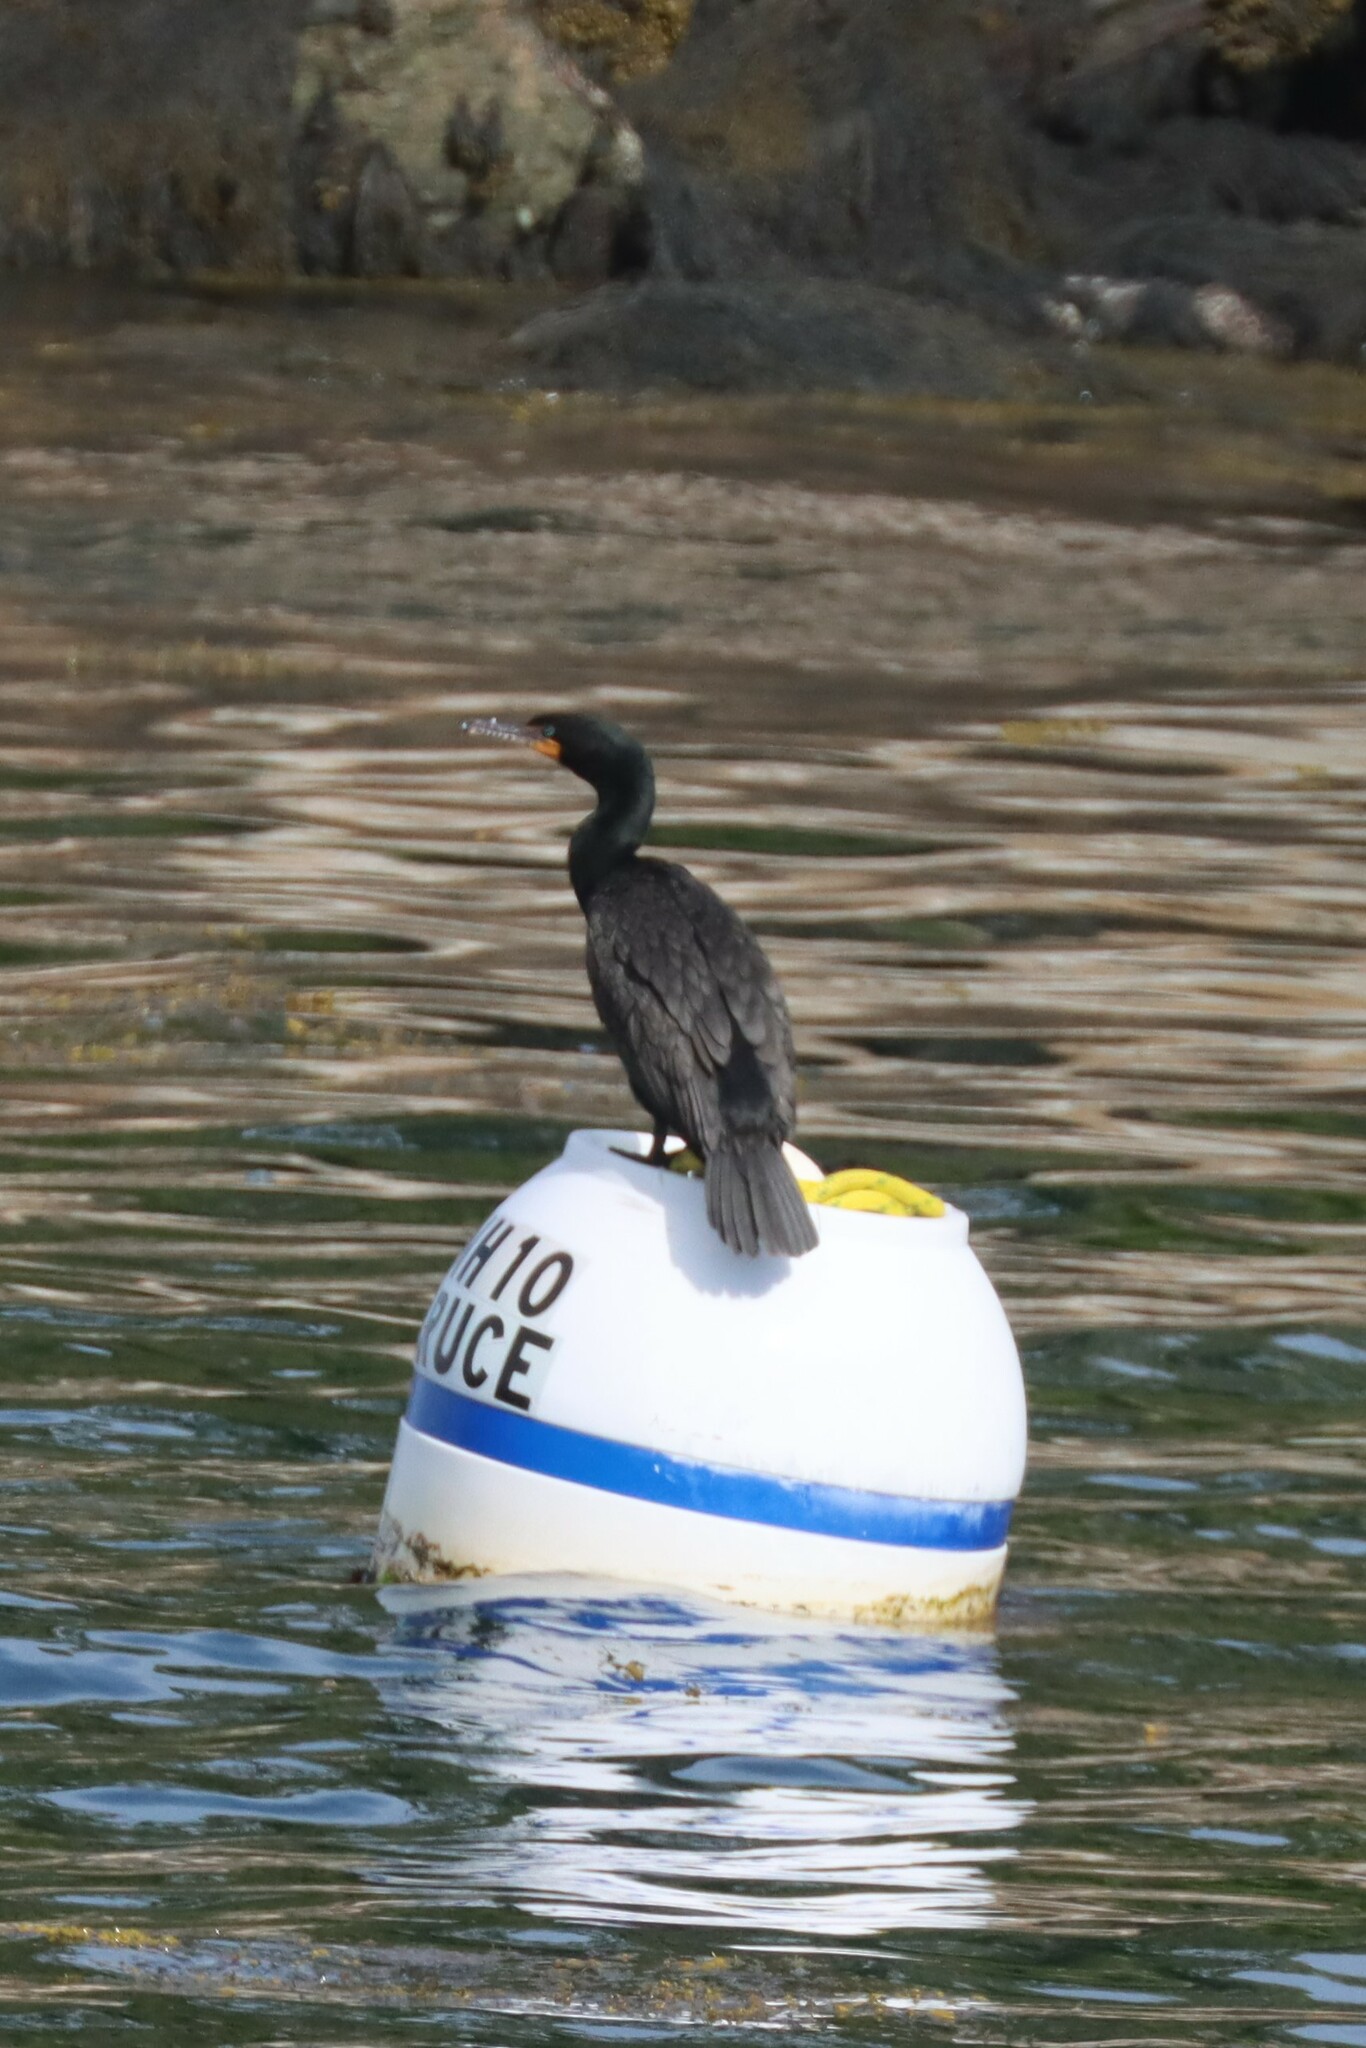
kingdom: Animalia
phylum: Chordata
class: Aves
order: Suliformes
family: Phalacrocoracidae
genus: Phalacrocorax
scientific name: Phalacrocorax auritus
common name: Double-crested cormorant
